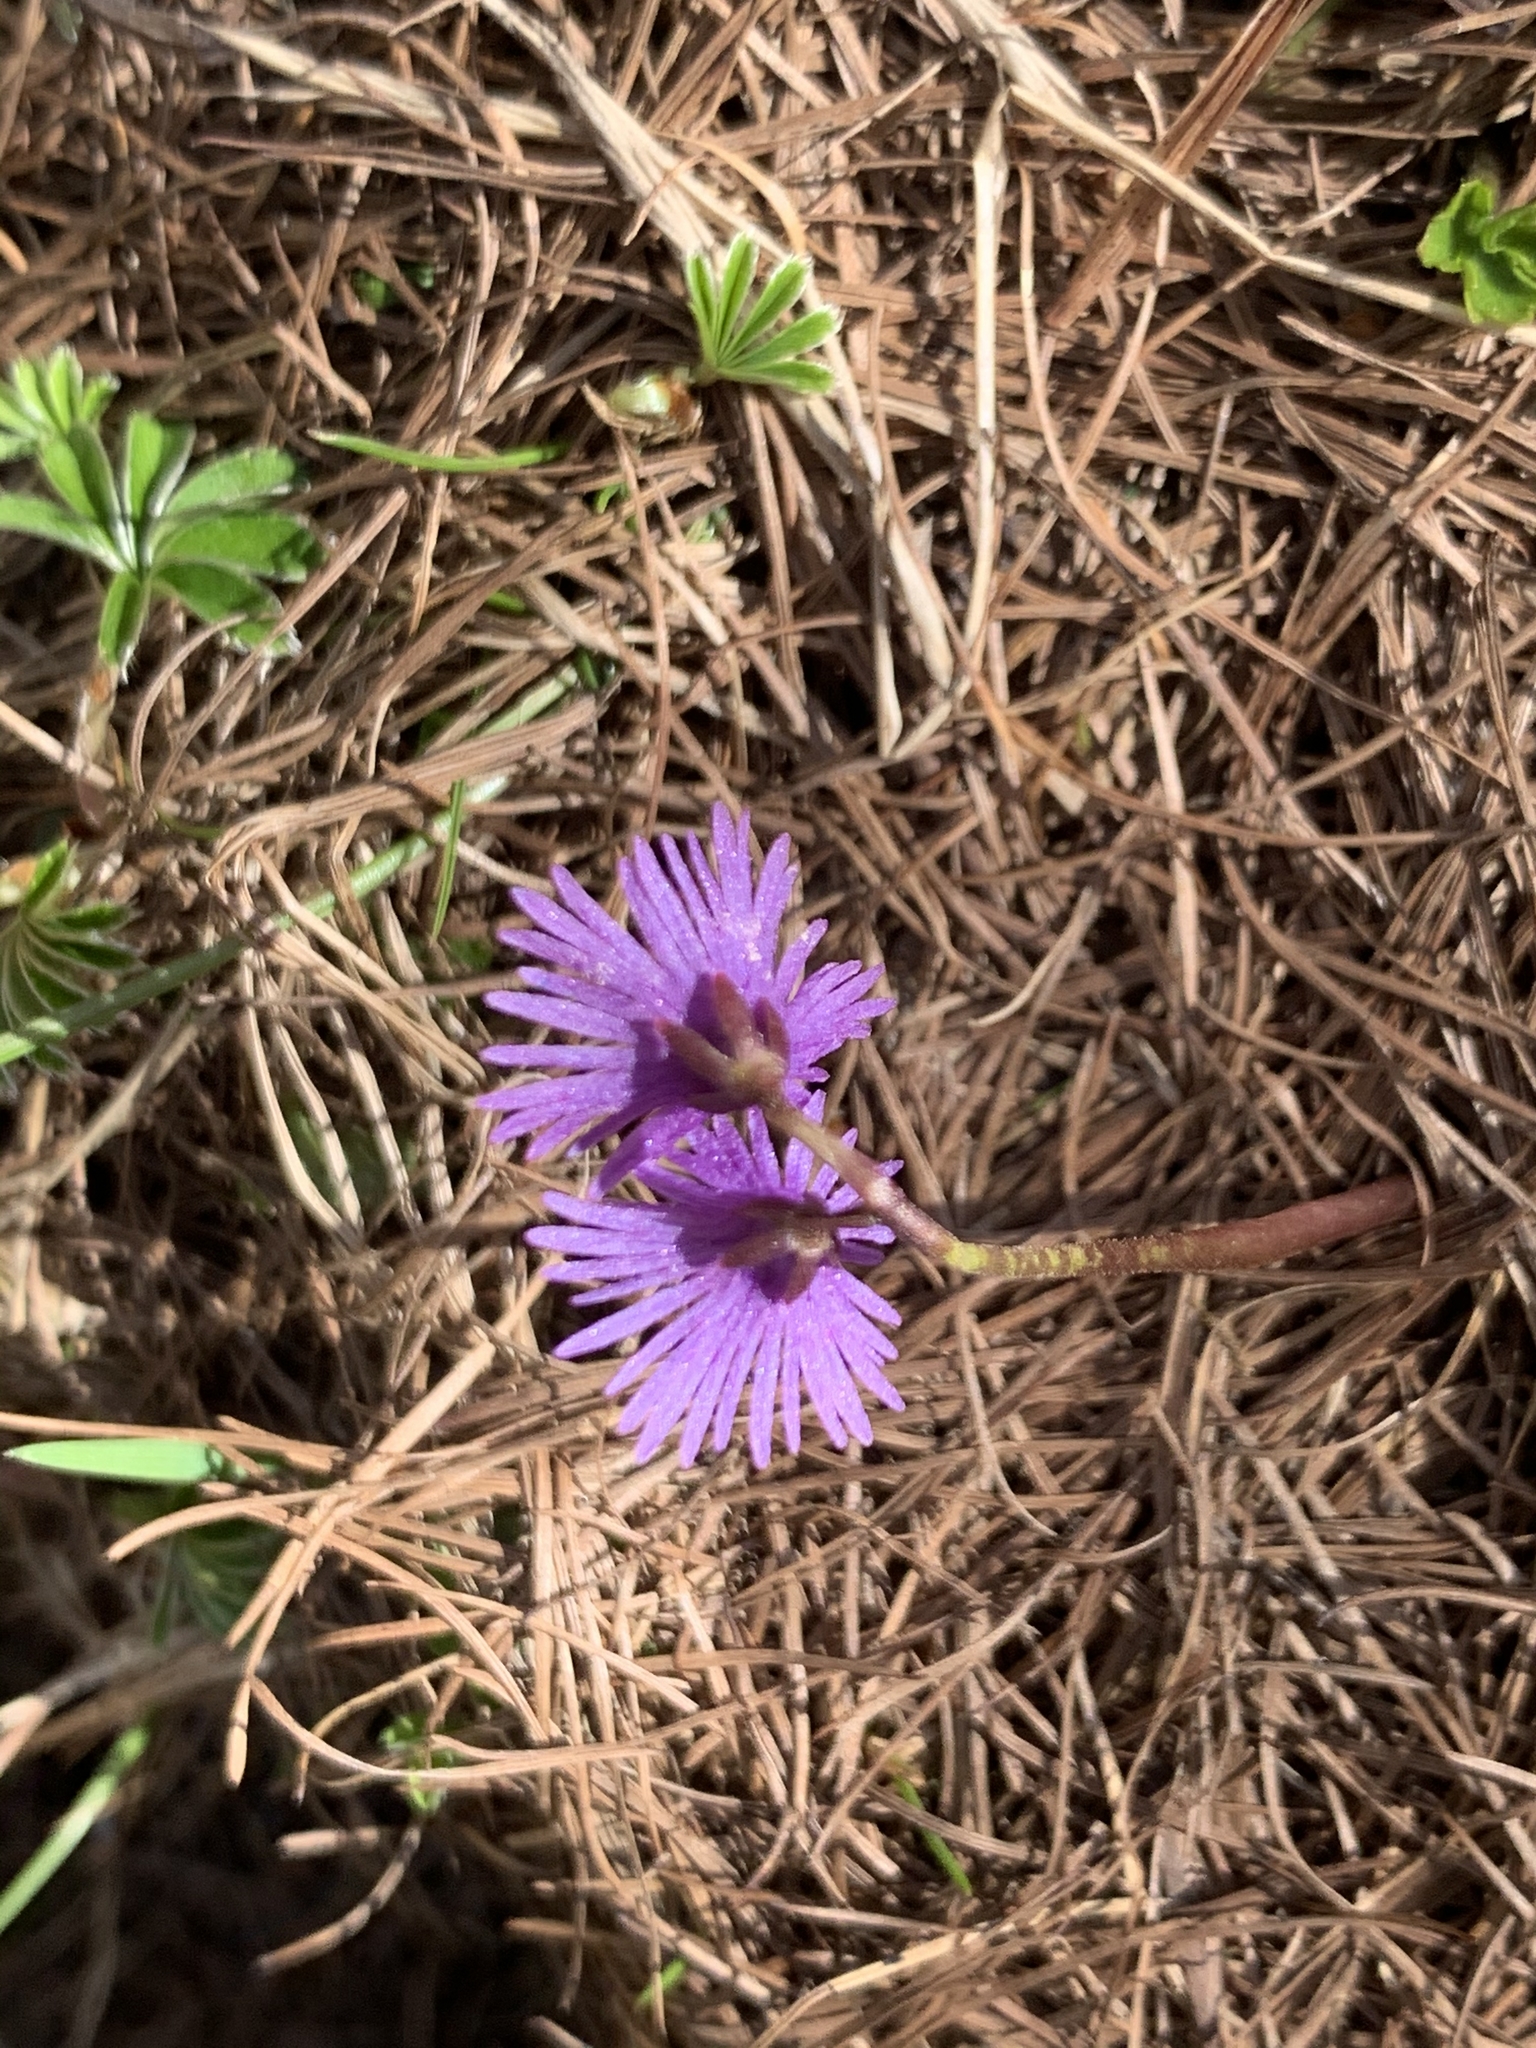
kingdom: Plantae
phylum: Tracheophyta
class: Magnoliopsida
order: Ericales
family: Primulaceae
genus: Soldanella
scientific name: Soldanella alpina
